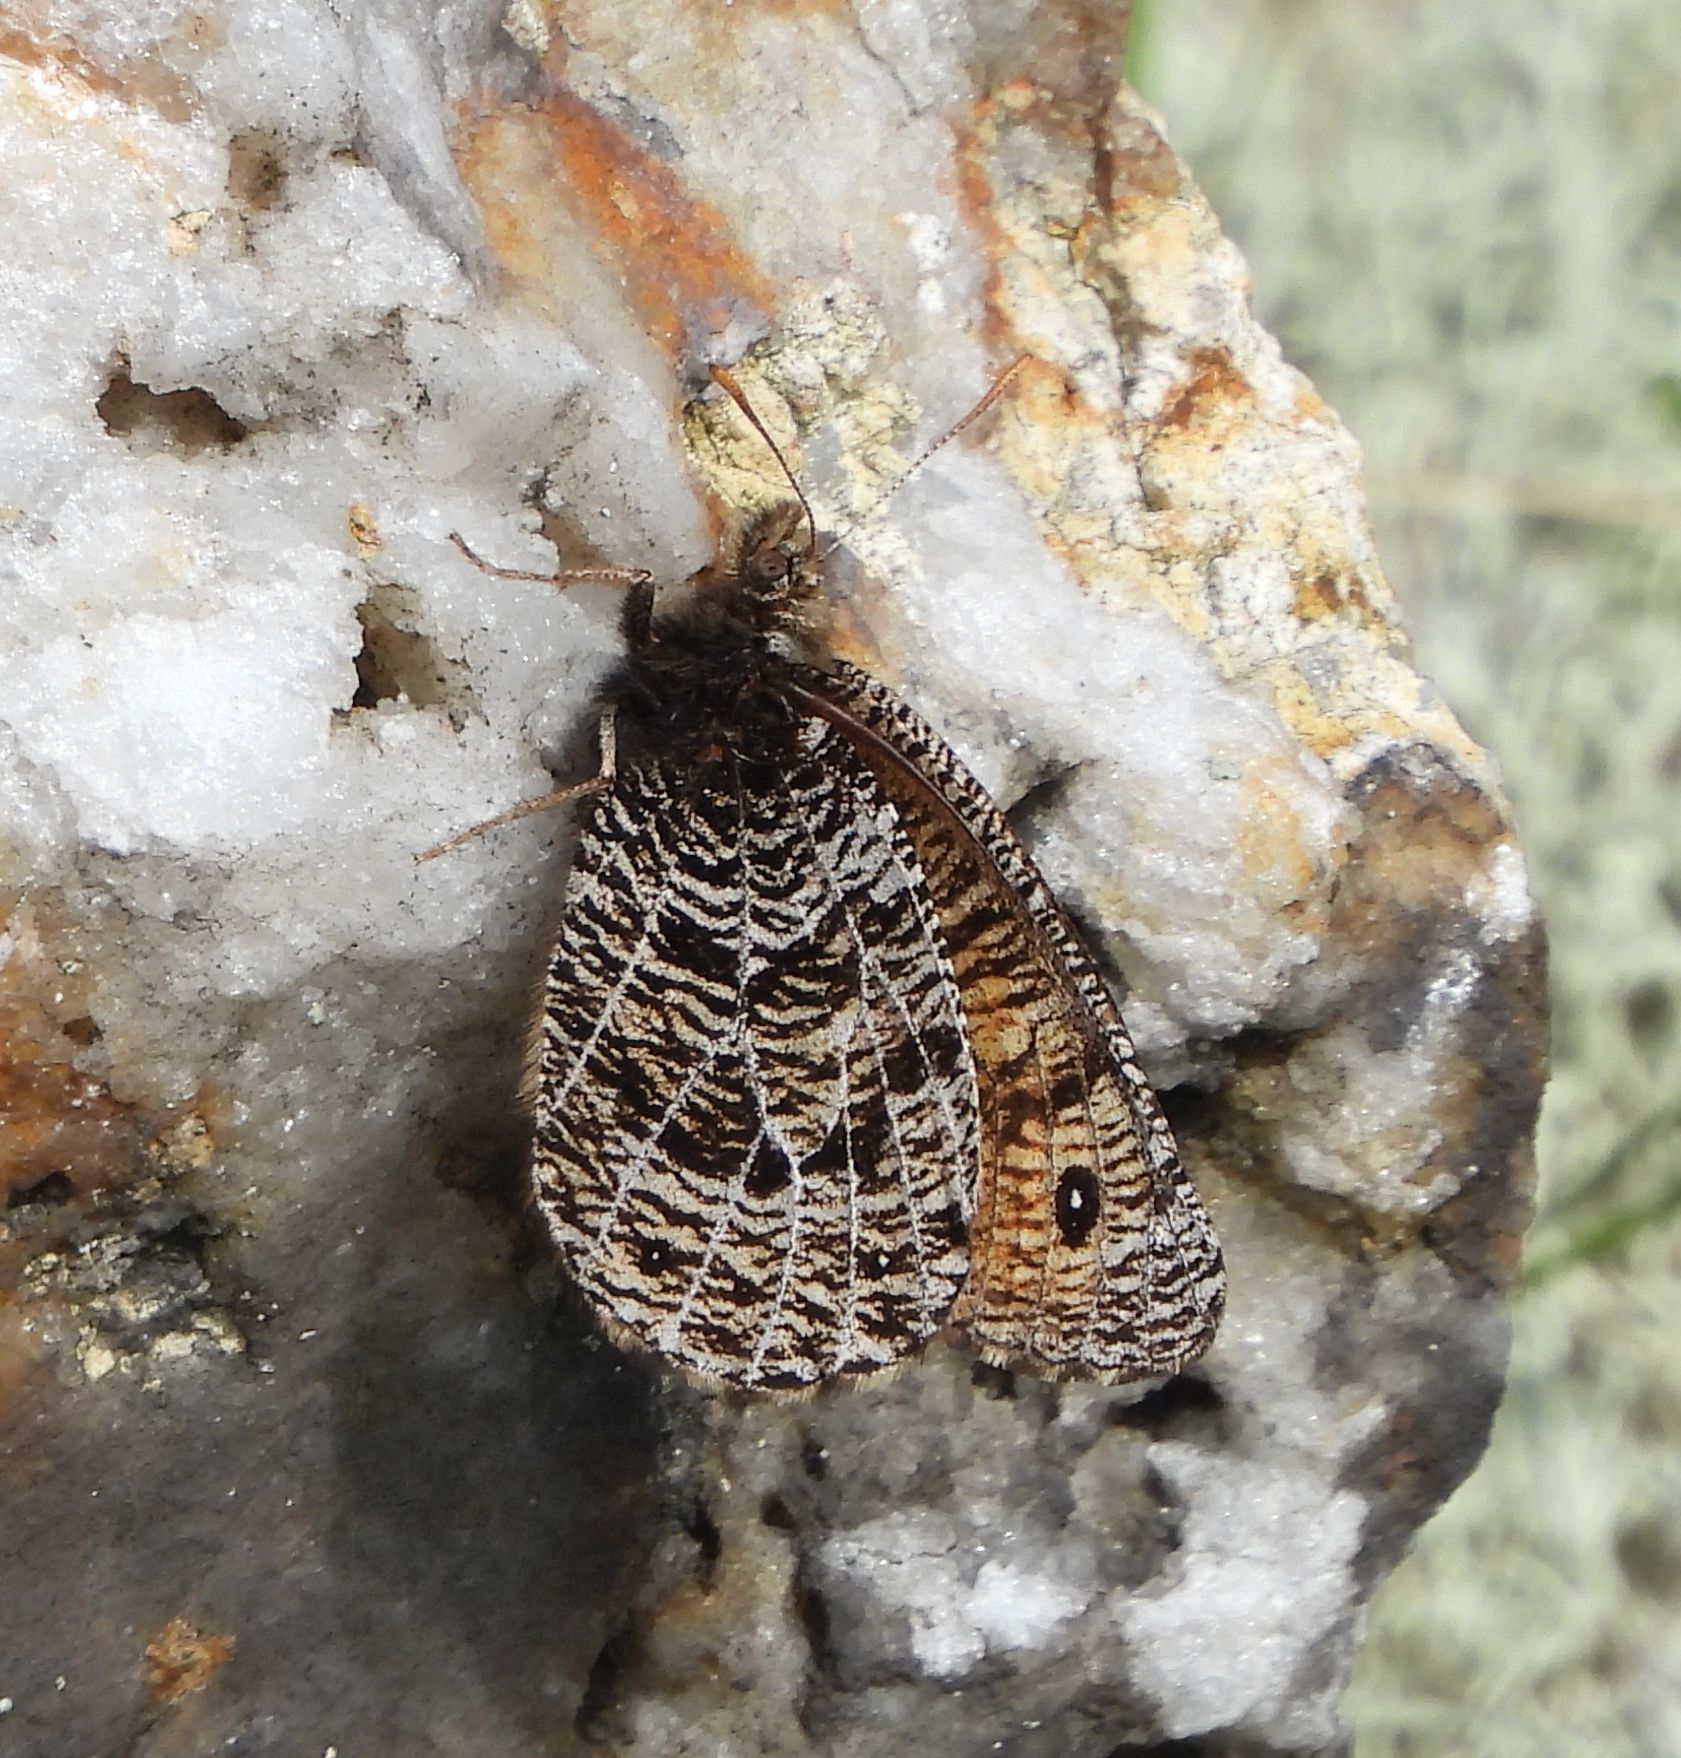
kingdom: Animalia
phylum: Arthropoda
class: Insecta
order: Lepidoptera
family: Nymphalidae
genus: Oeneis
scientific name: Oeneis chryxus
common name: Chryxus arctic
